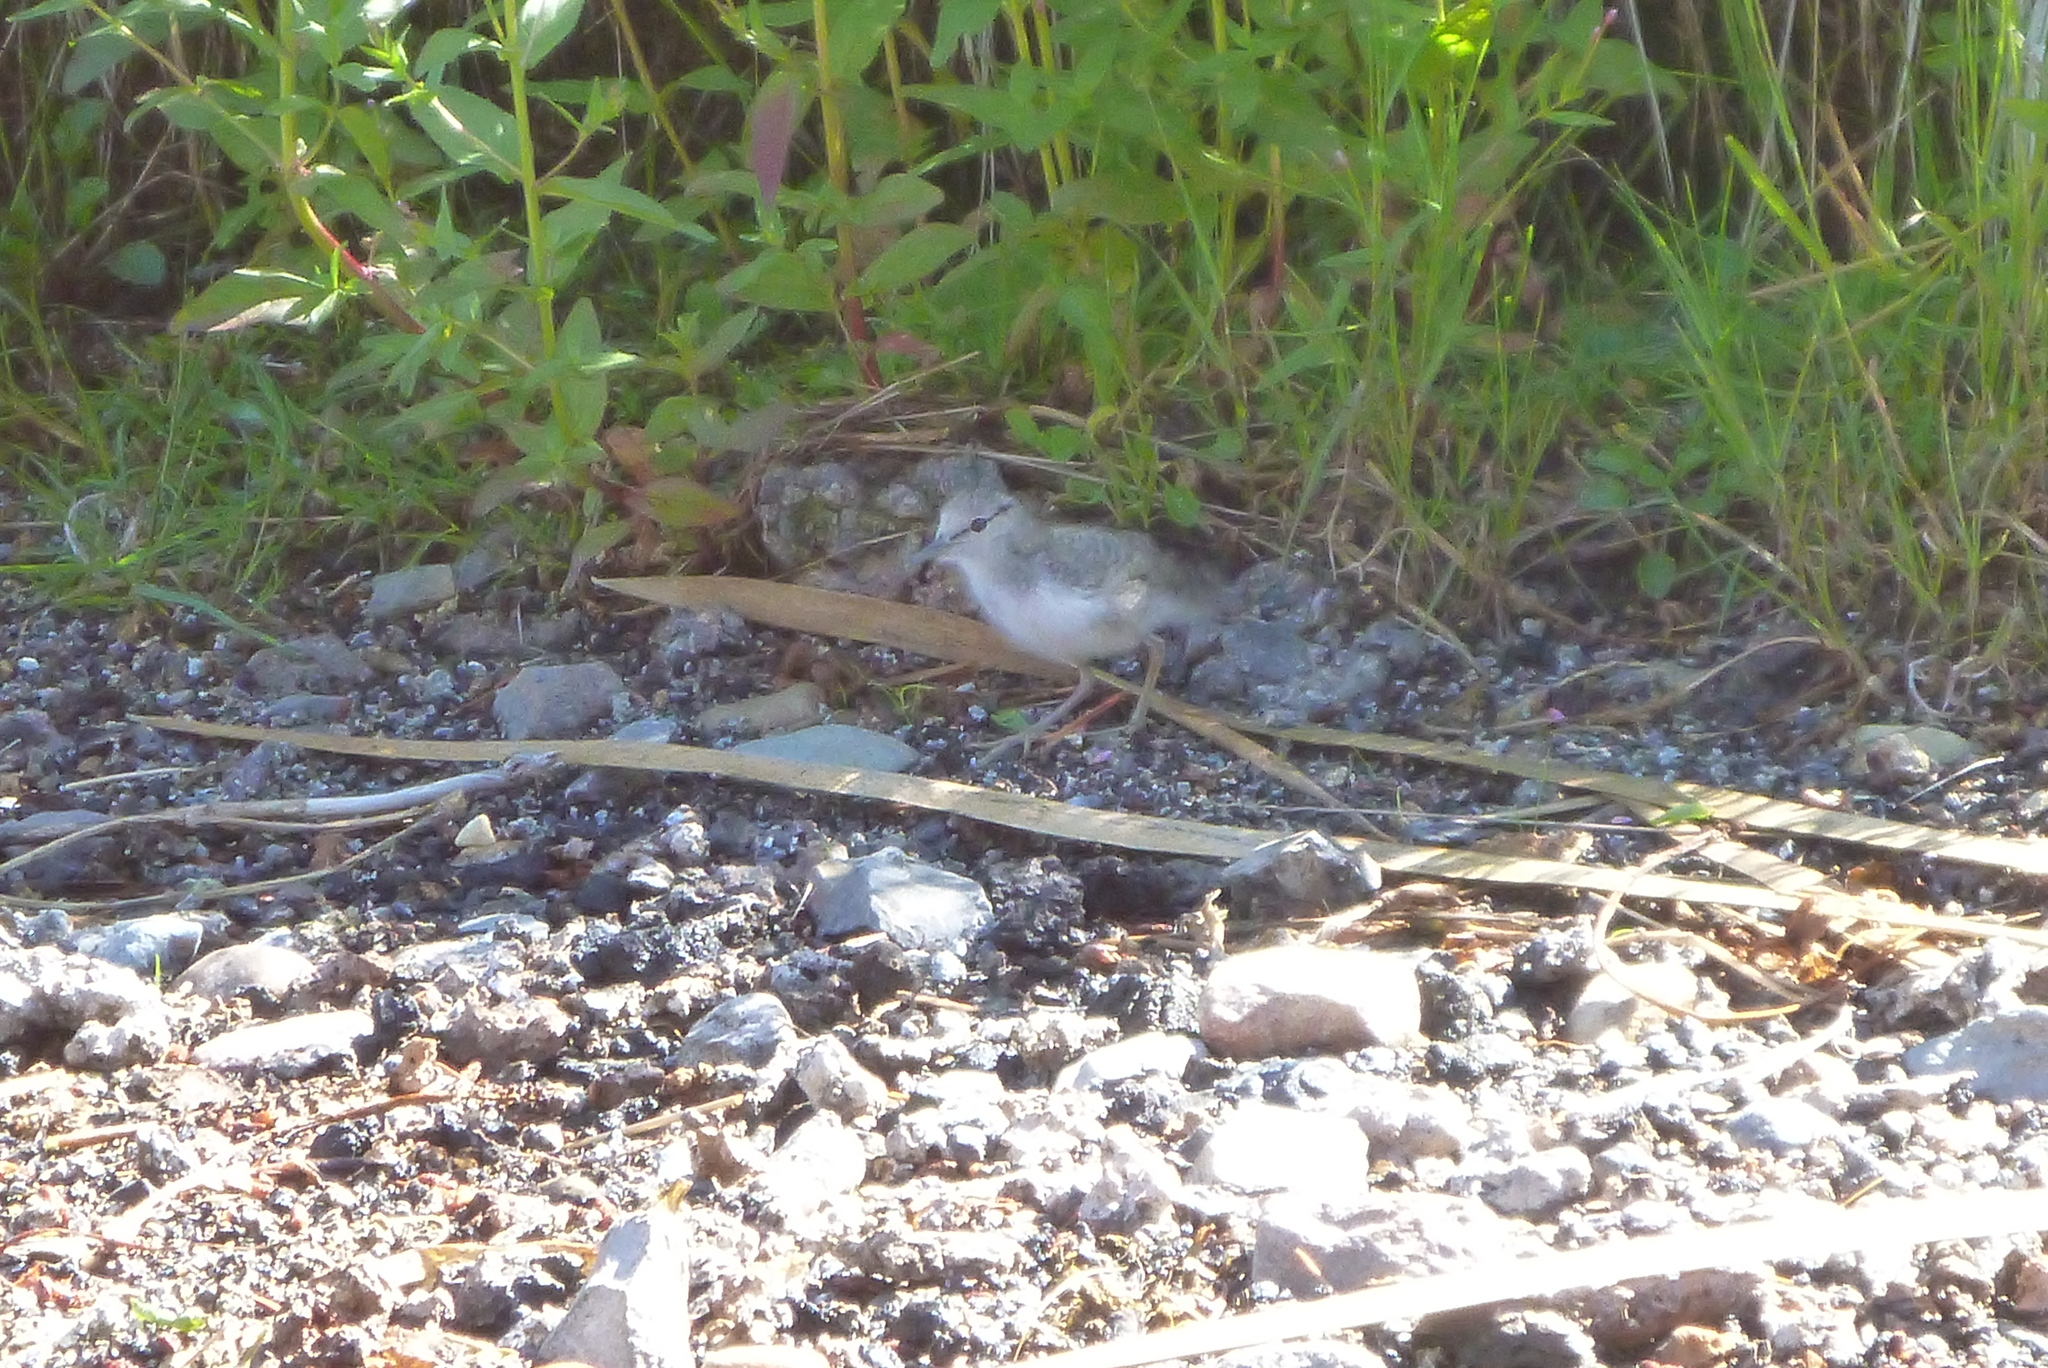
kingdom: Animalia
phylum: Chordata
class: Aves
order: Charadriiformes
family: Scolopacidae
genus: Actitis
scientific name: Actitis macularius
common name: Spotted sandpiper
